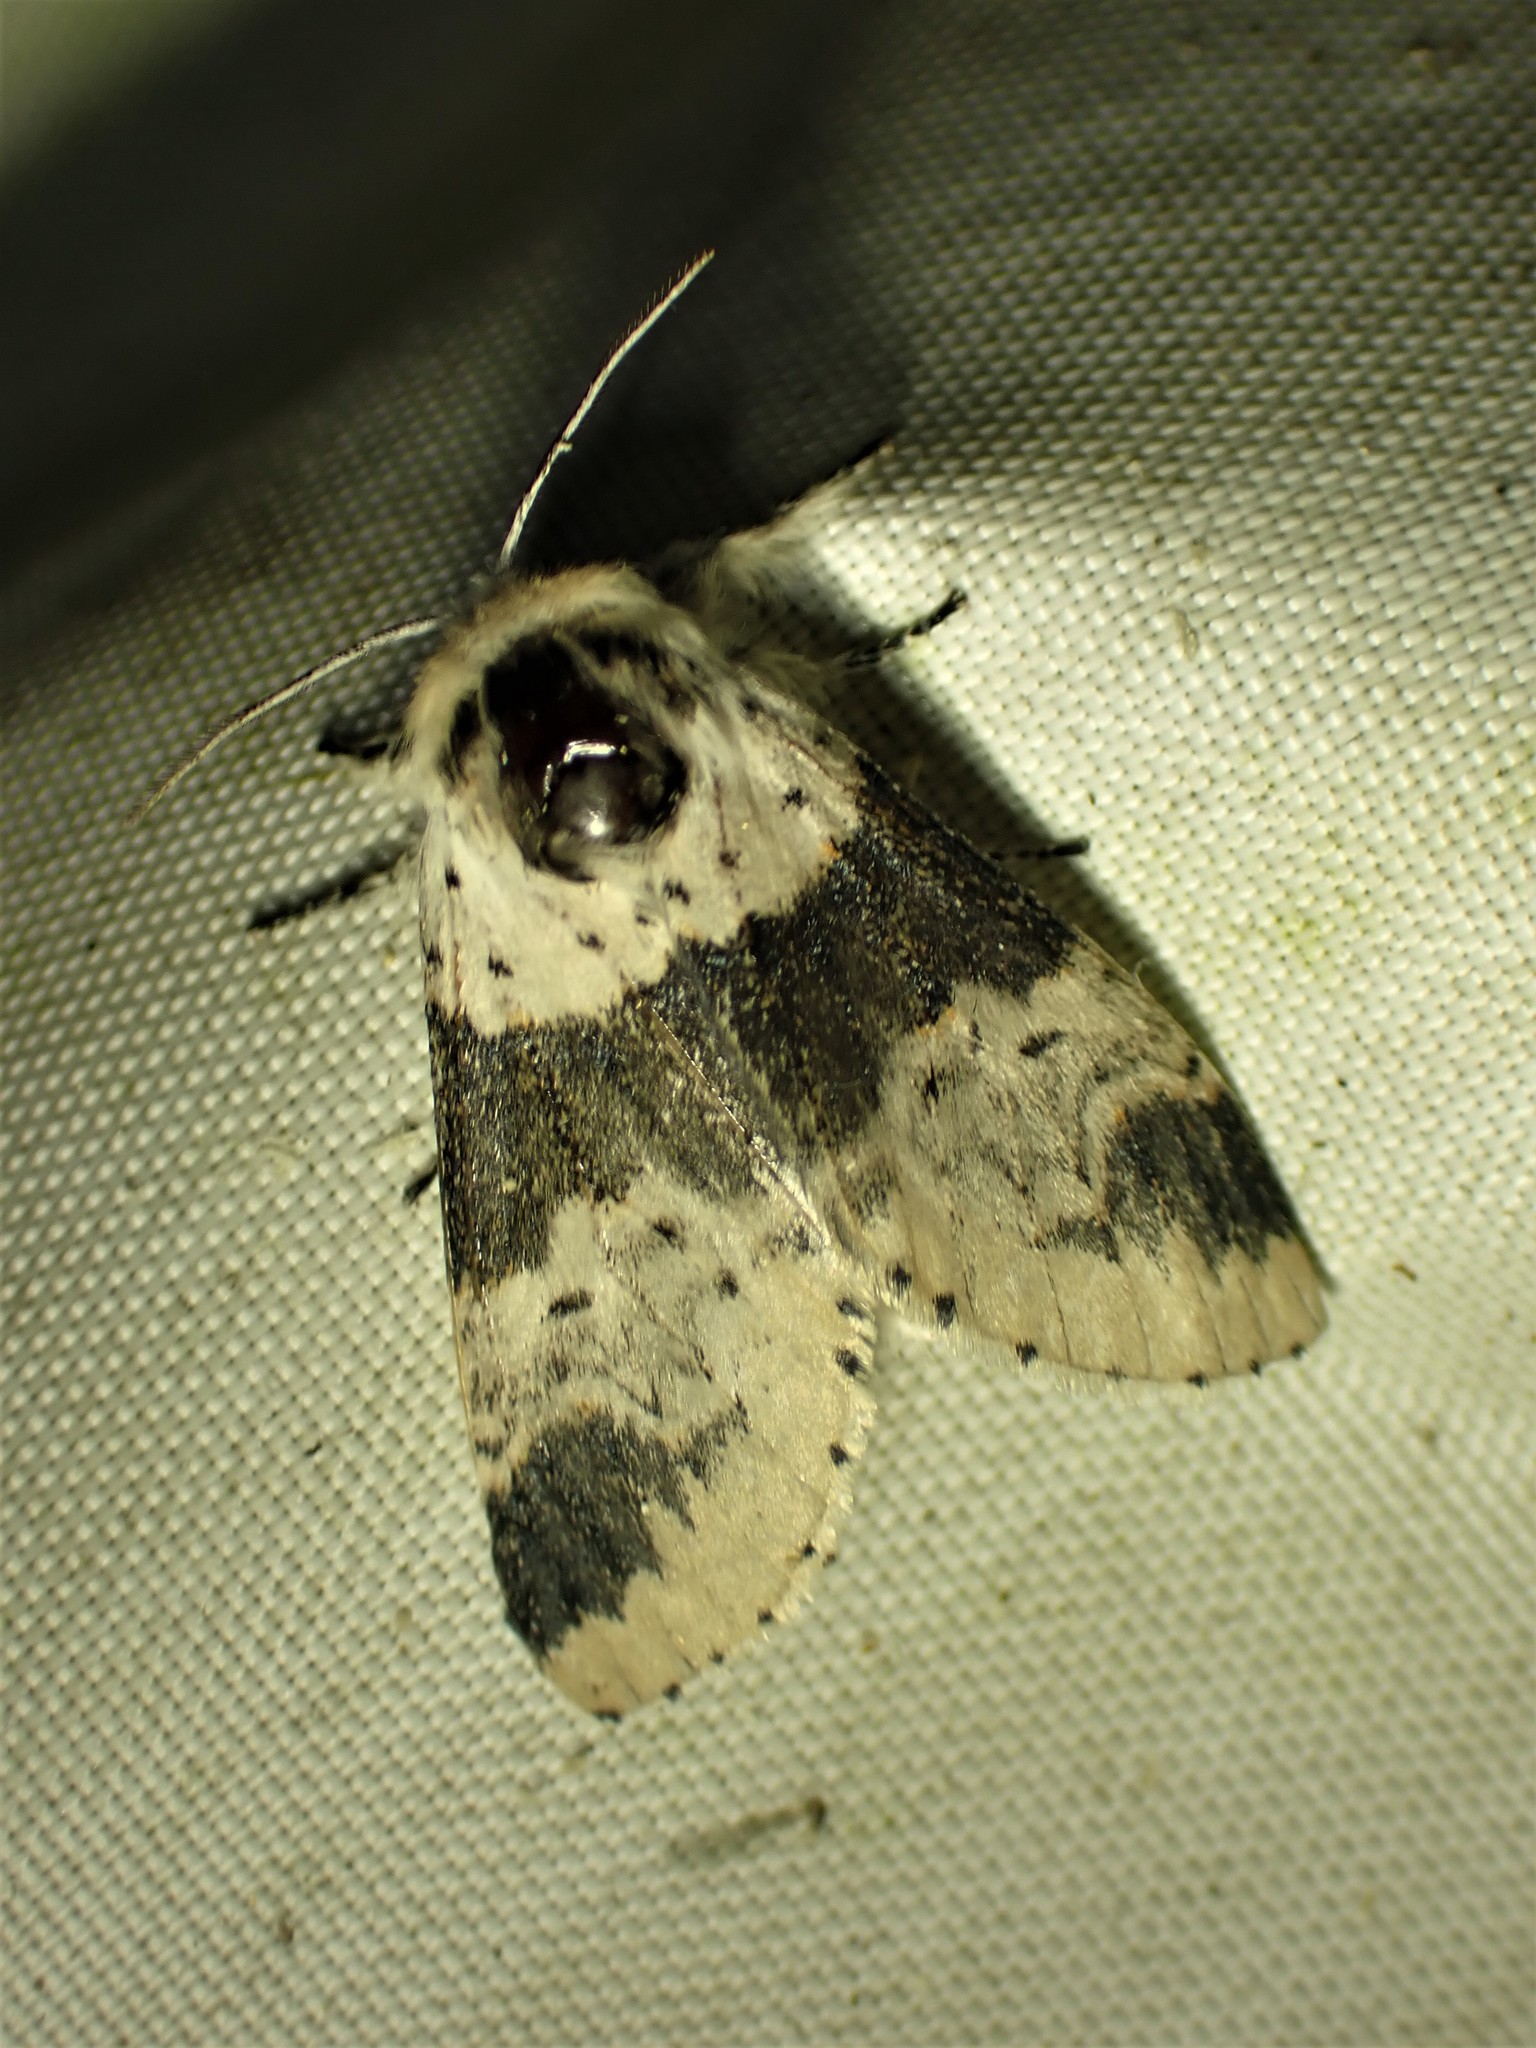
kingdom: Animalia
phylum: Arthropoda
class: Insecta
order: Lepidoptera
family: Notodontidae
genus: Furcula
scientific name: Furcula modesta
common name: Modest furcula moth
